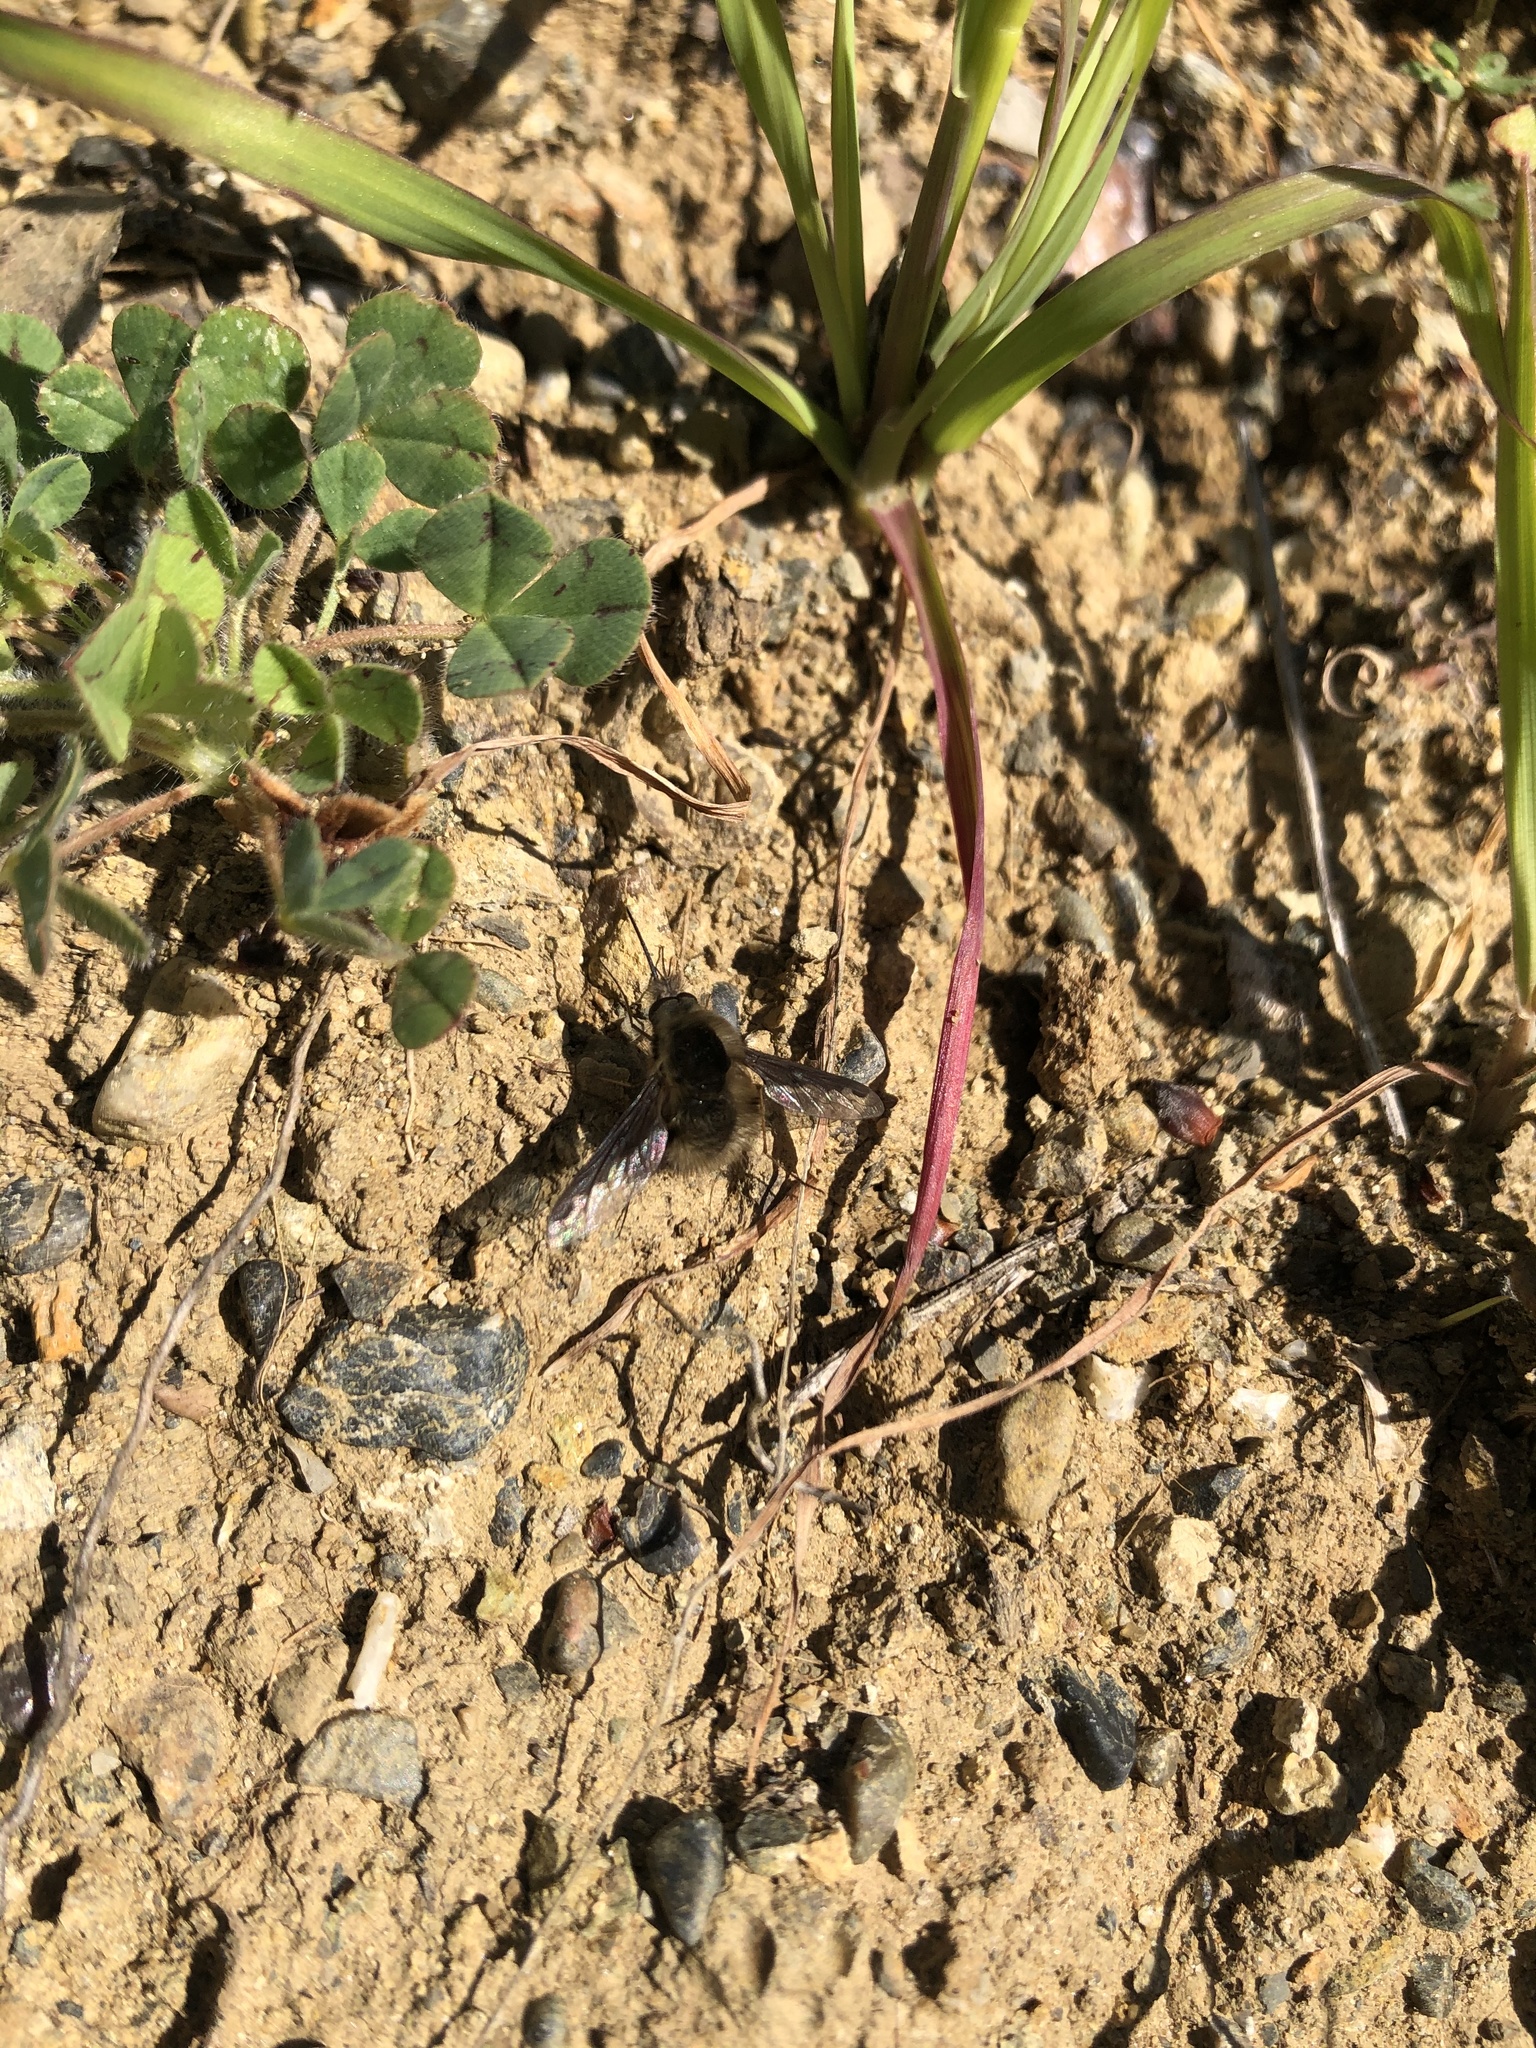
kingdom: Animalia
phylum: Arthropoda
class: Insecta
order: Diptera
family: Bombyliidae
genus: Bombylius
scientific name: Bombylius major
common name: Bee fly
